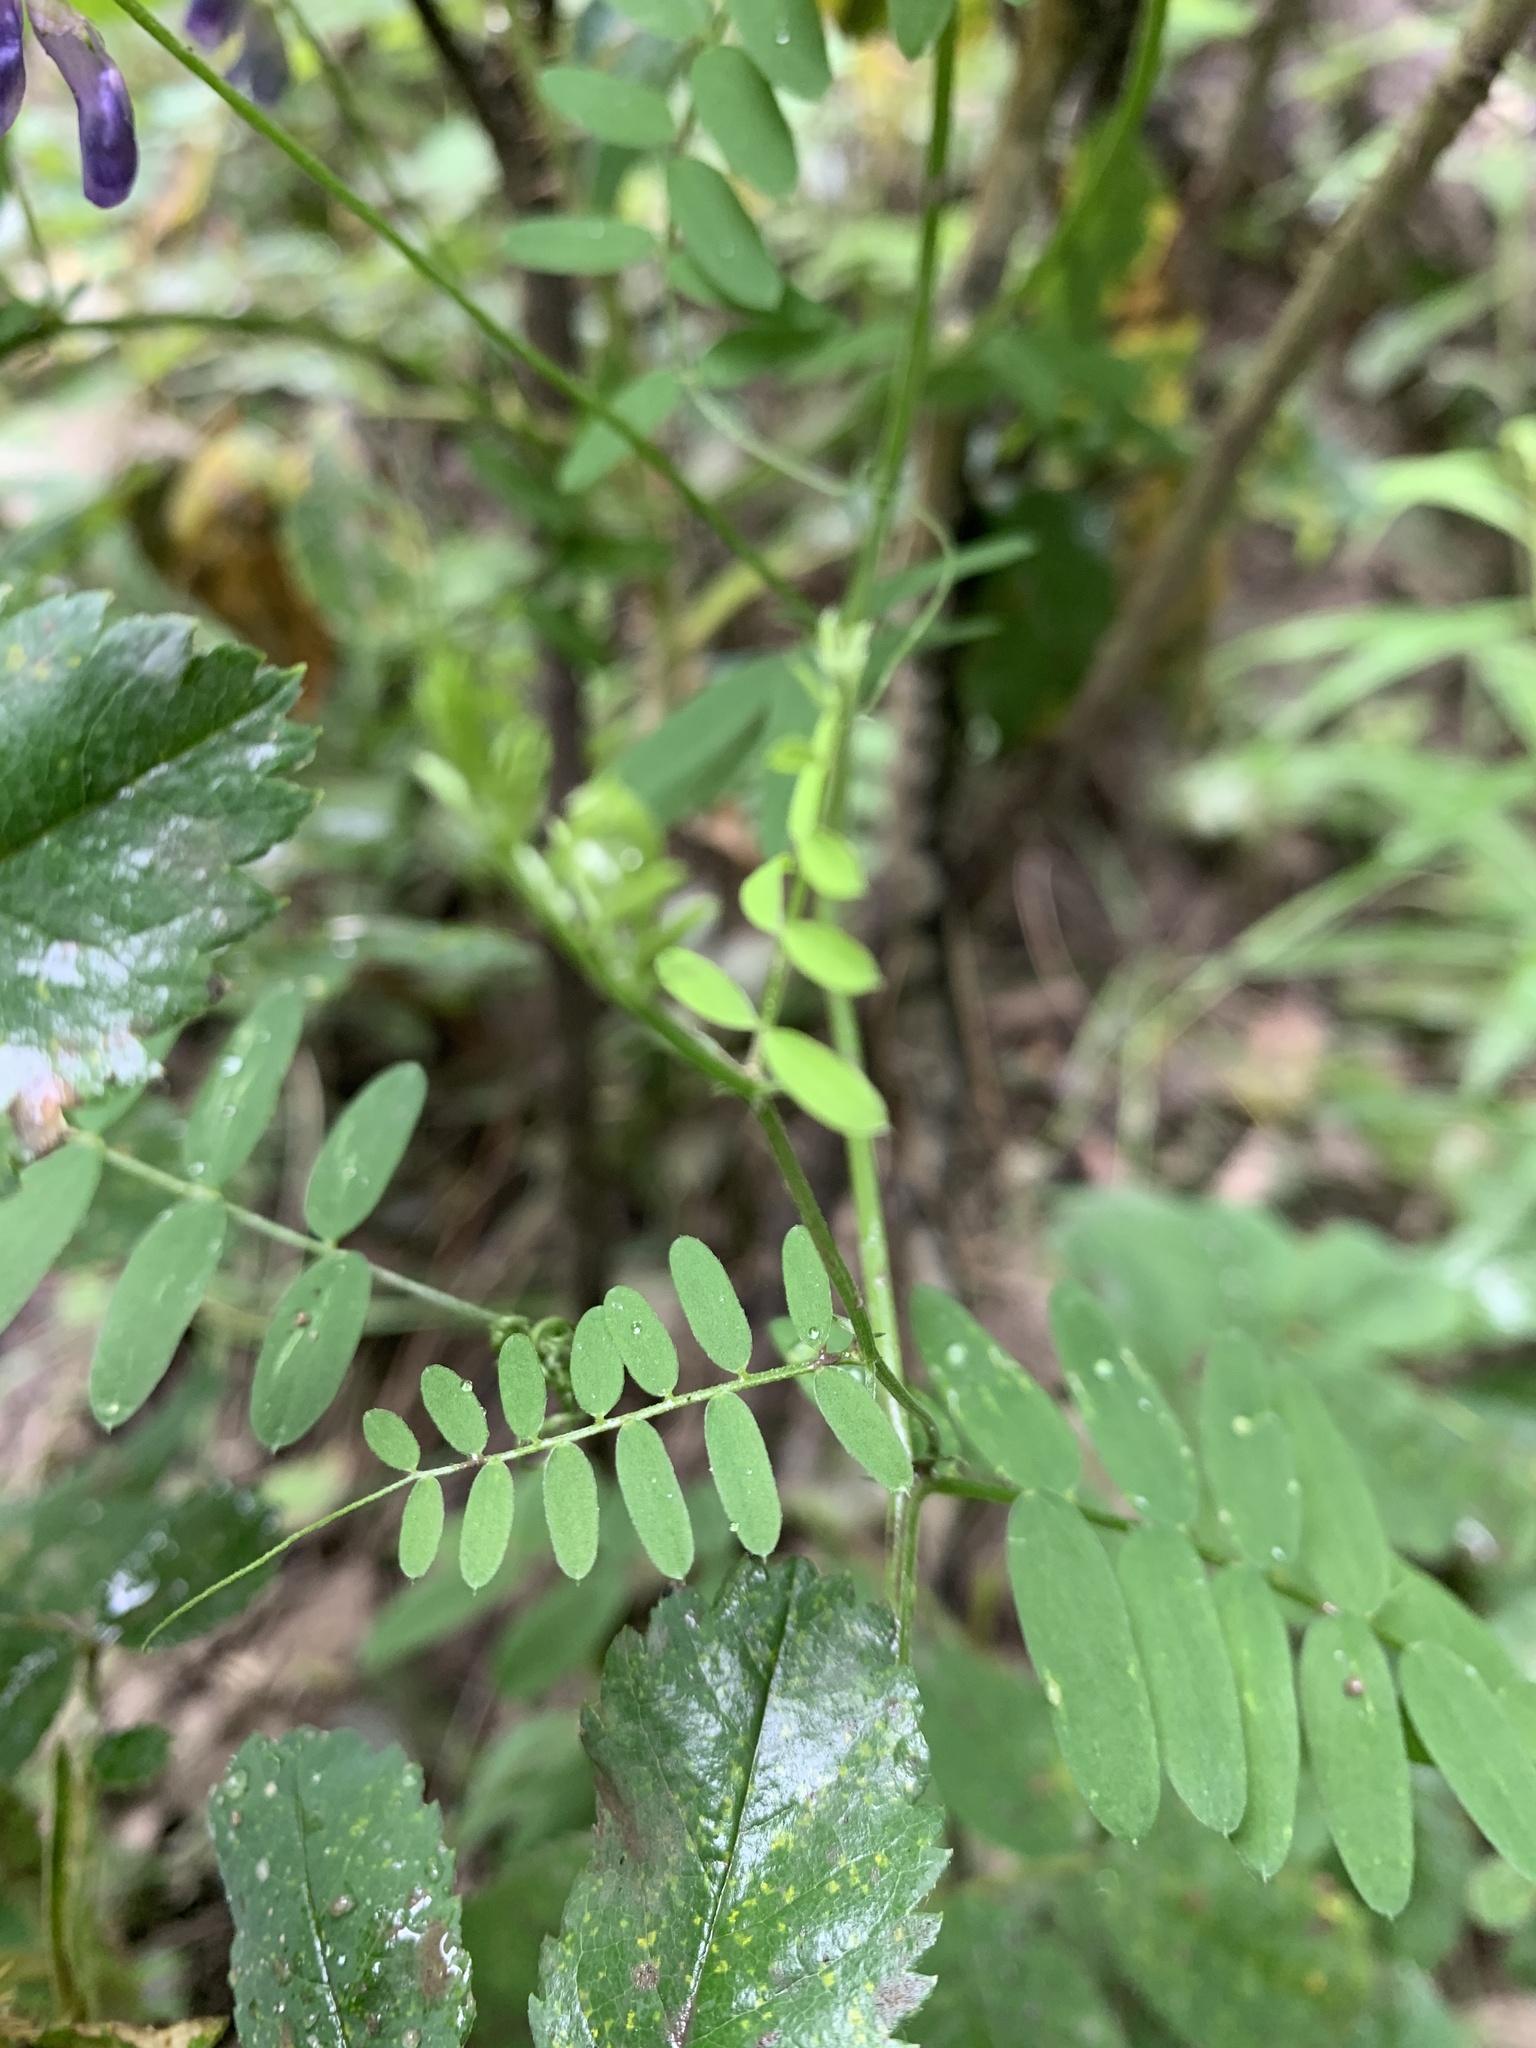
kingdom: Plantae
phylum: Tracheophyta
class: Magnoliopsida
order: Fabales
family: Fabaceae
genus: Vicia
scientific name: Vicia cracca
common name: Bird vetch
